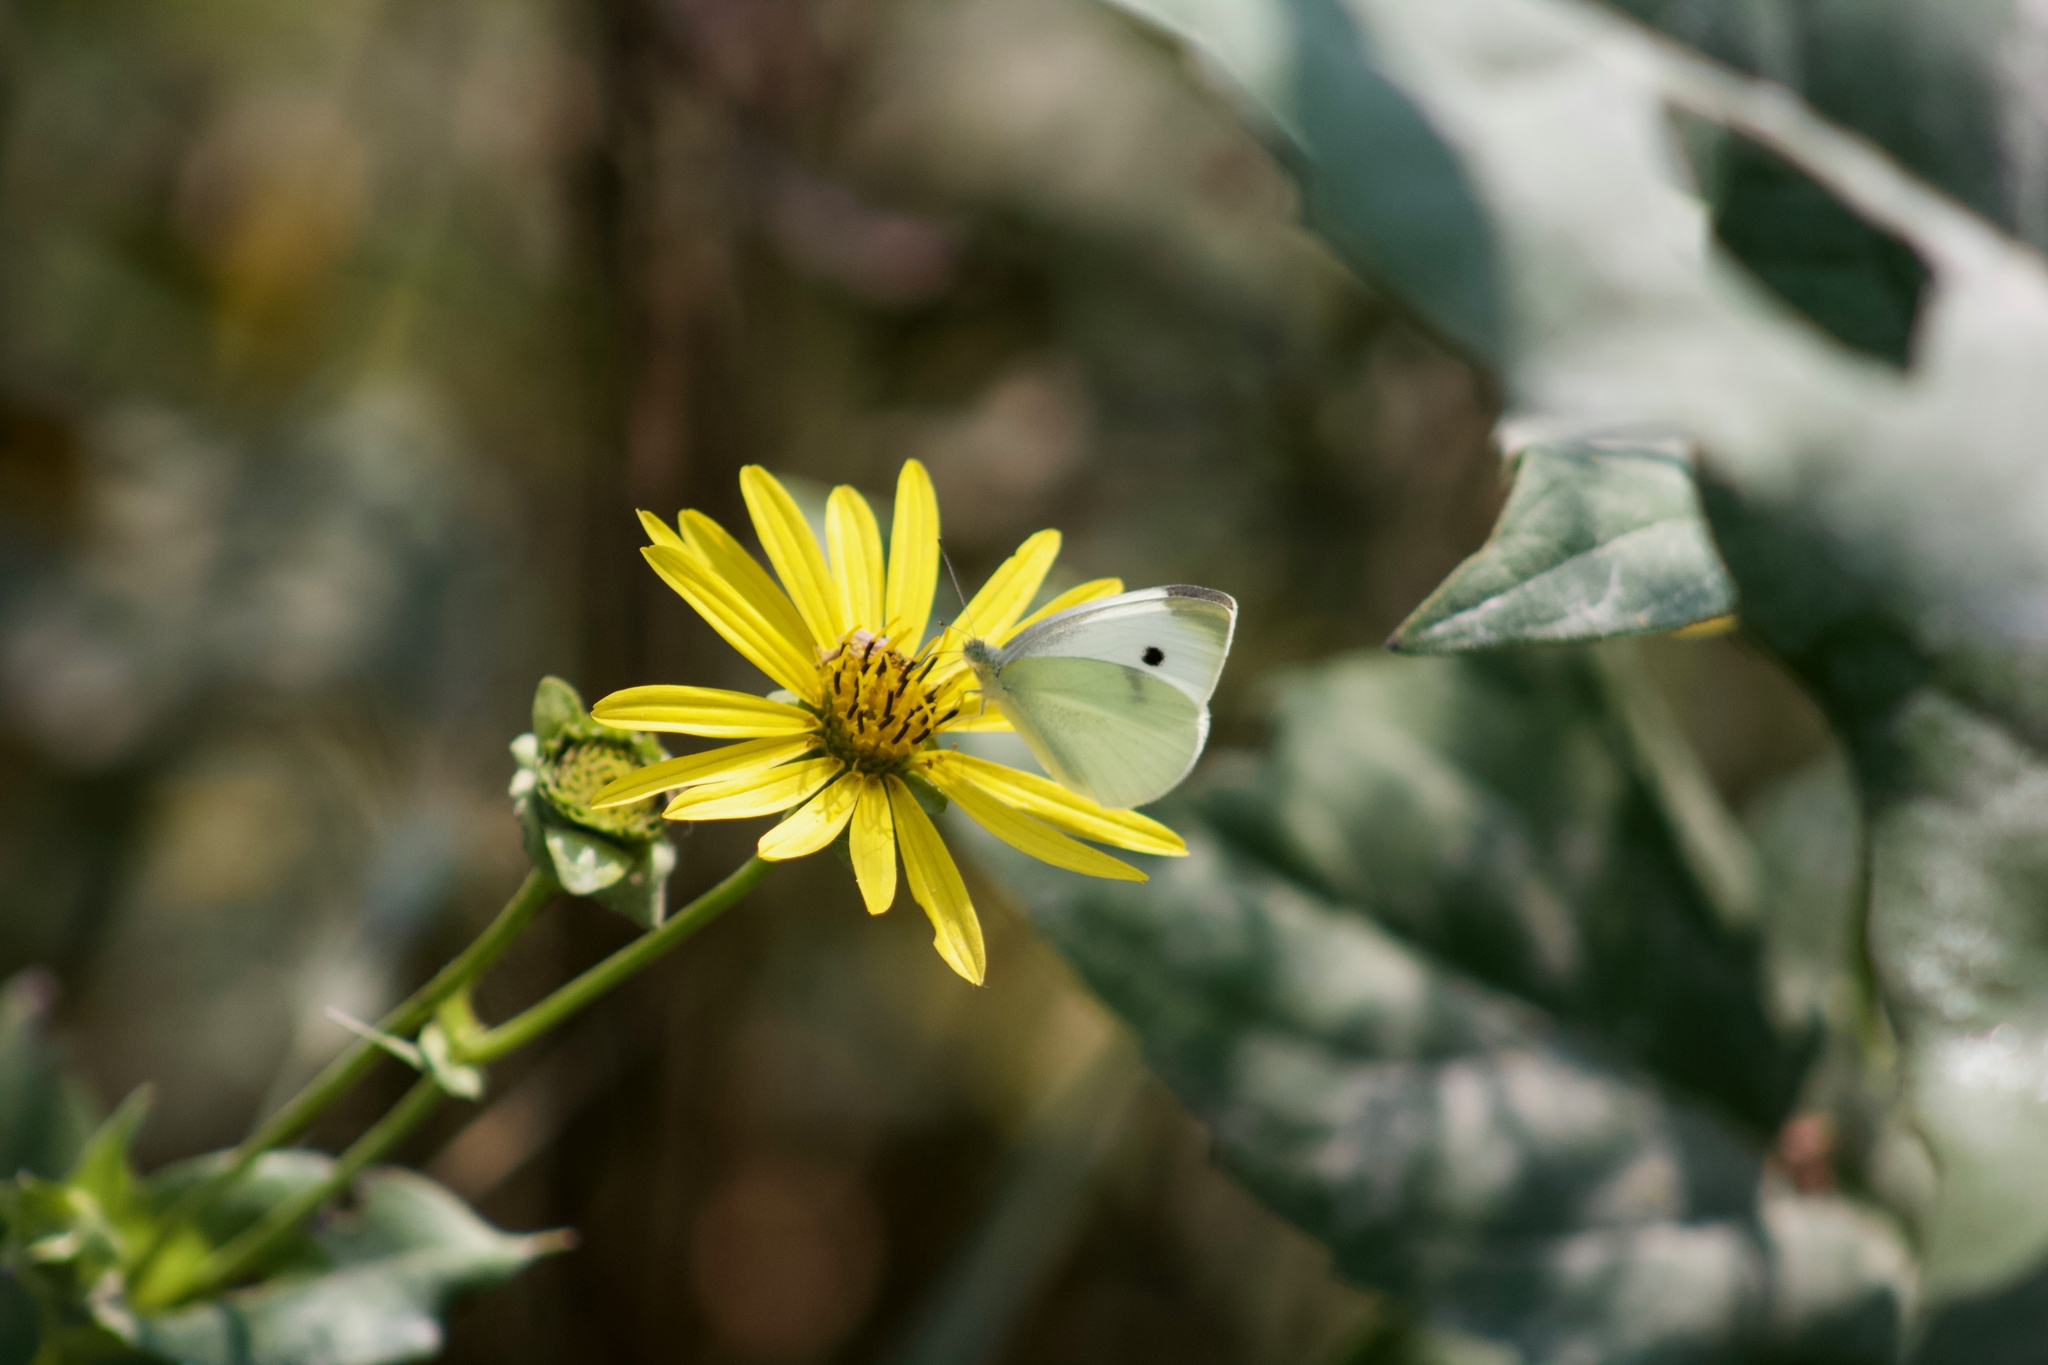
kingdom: Animalia
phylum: Arthropoda
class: Insecta
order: Lepidoptera
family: Pieridae
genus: Pieris
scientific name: Pieris rapae
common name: Small white
